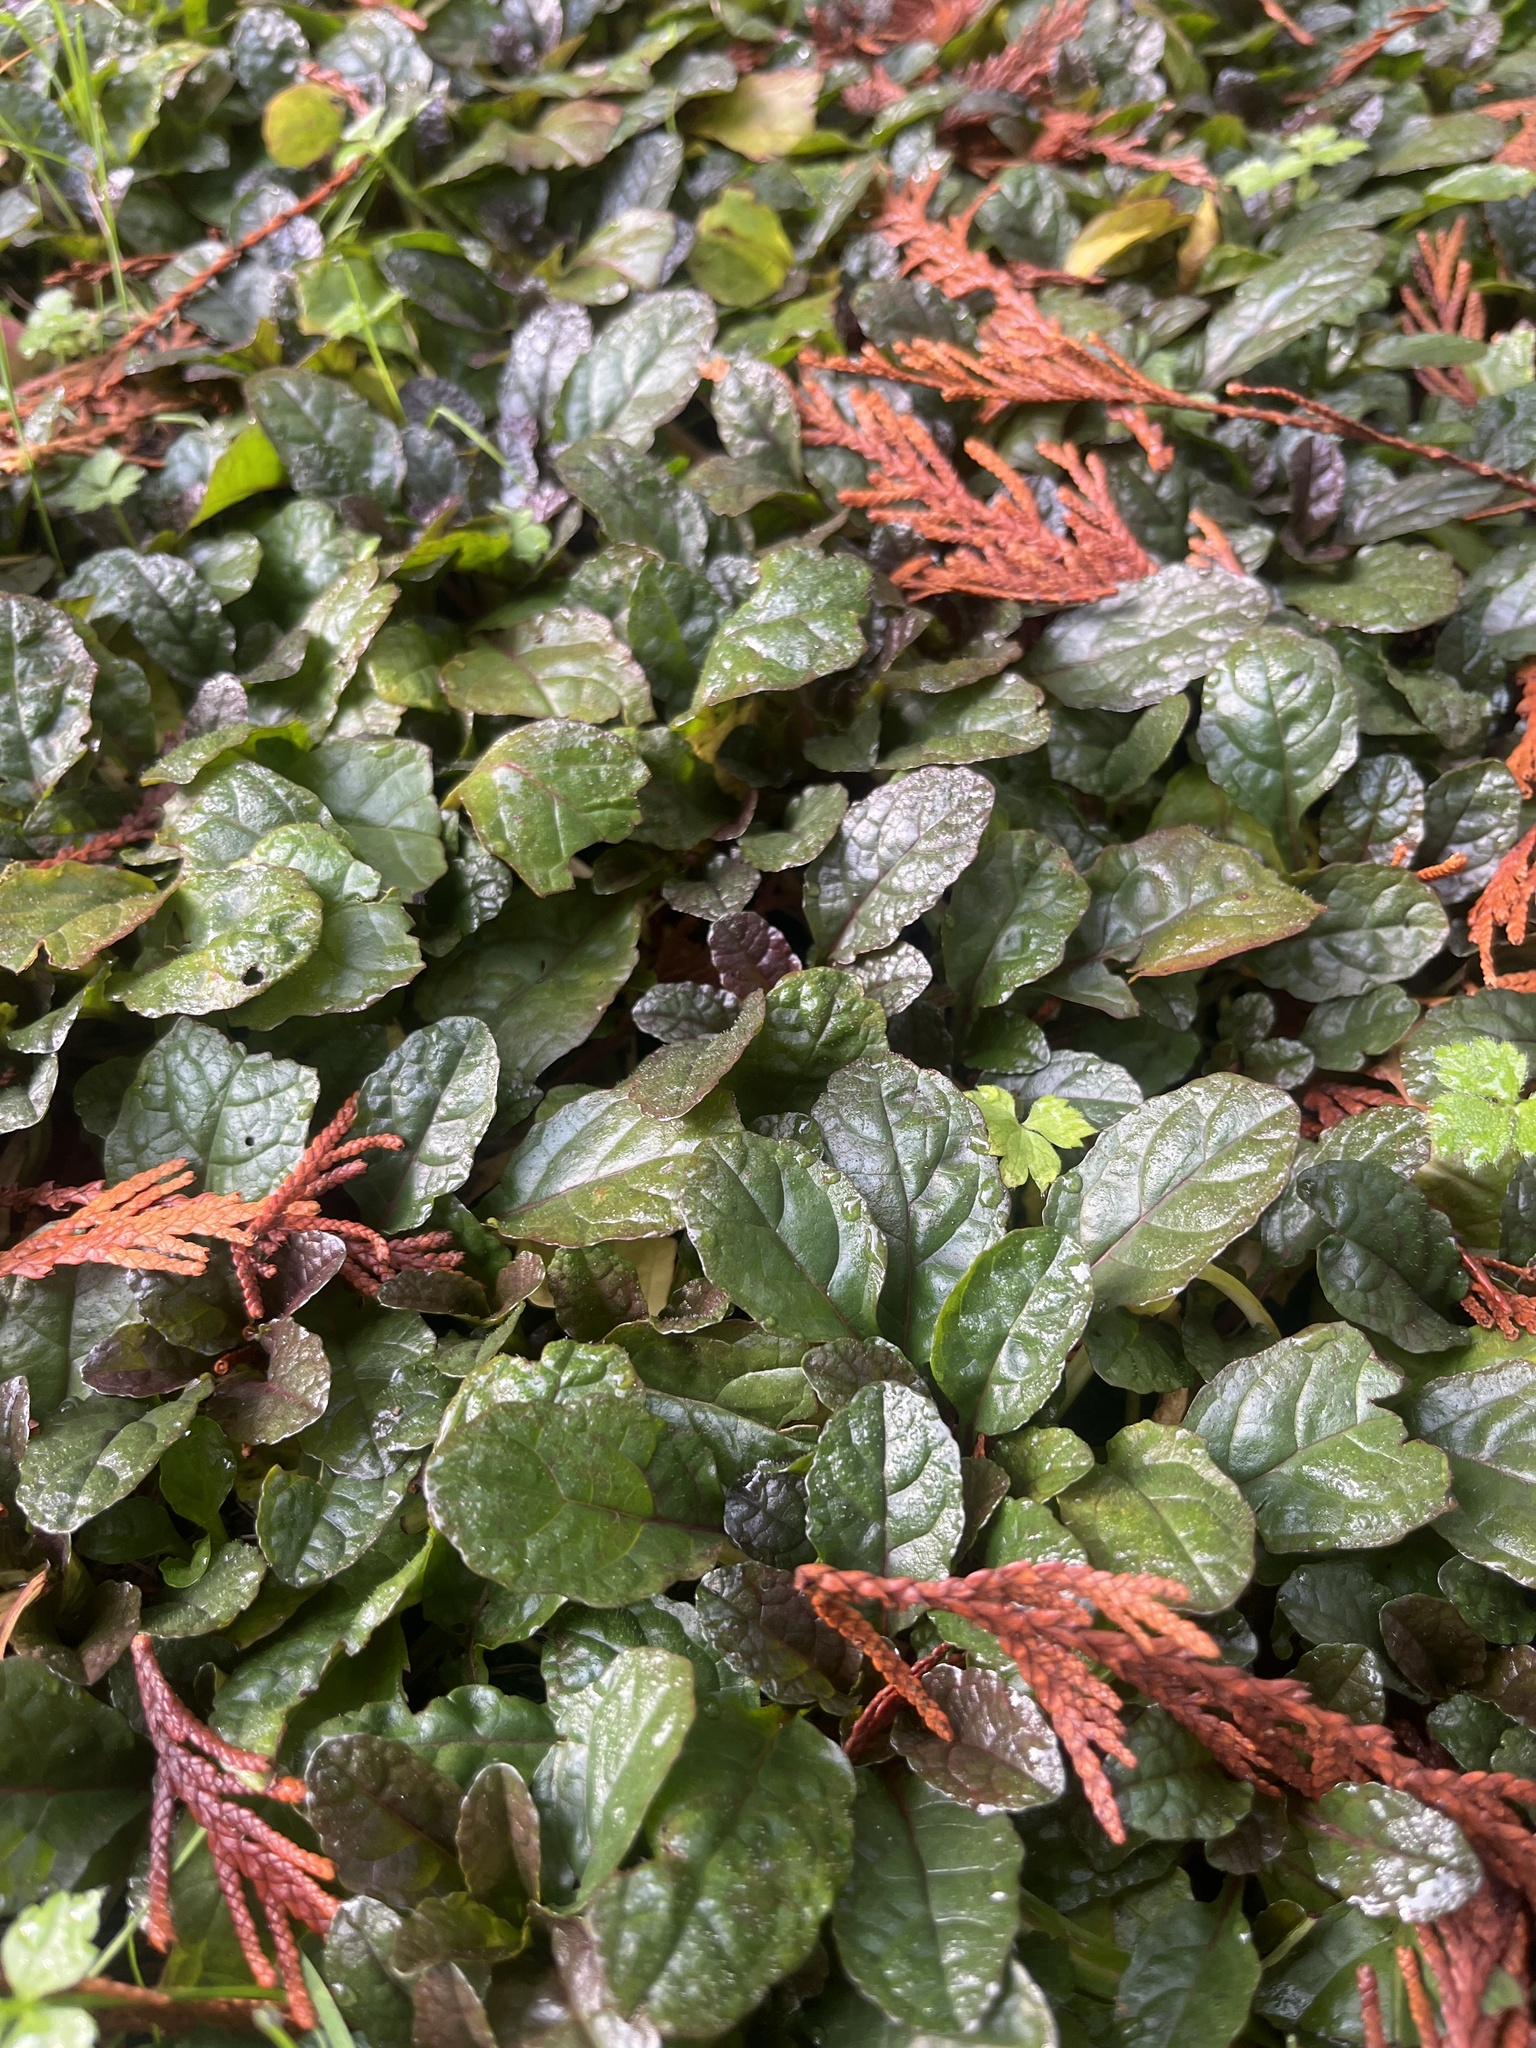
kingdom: Plantae
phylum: Tracheophyta
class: Magnoliopsida
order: Lamiales
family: Lamiaceae
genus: Ajuga
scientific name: Ajuga reptans
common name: Bugle
